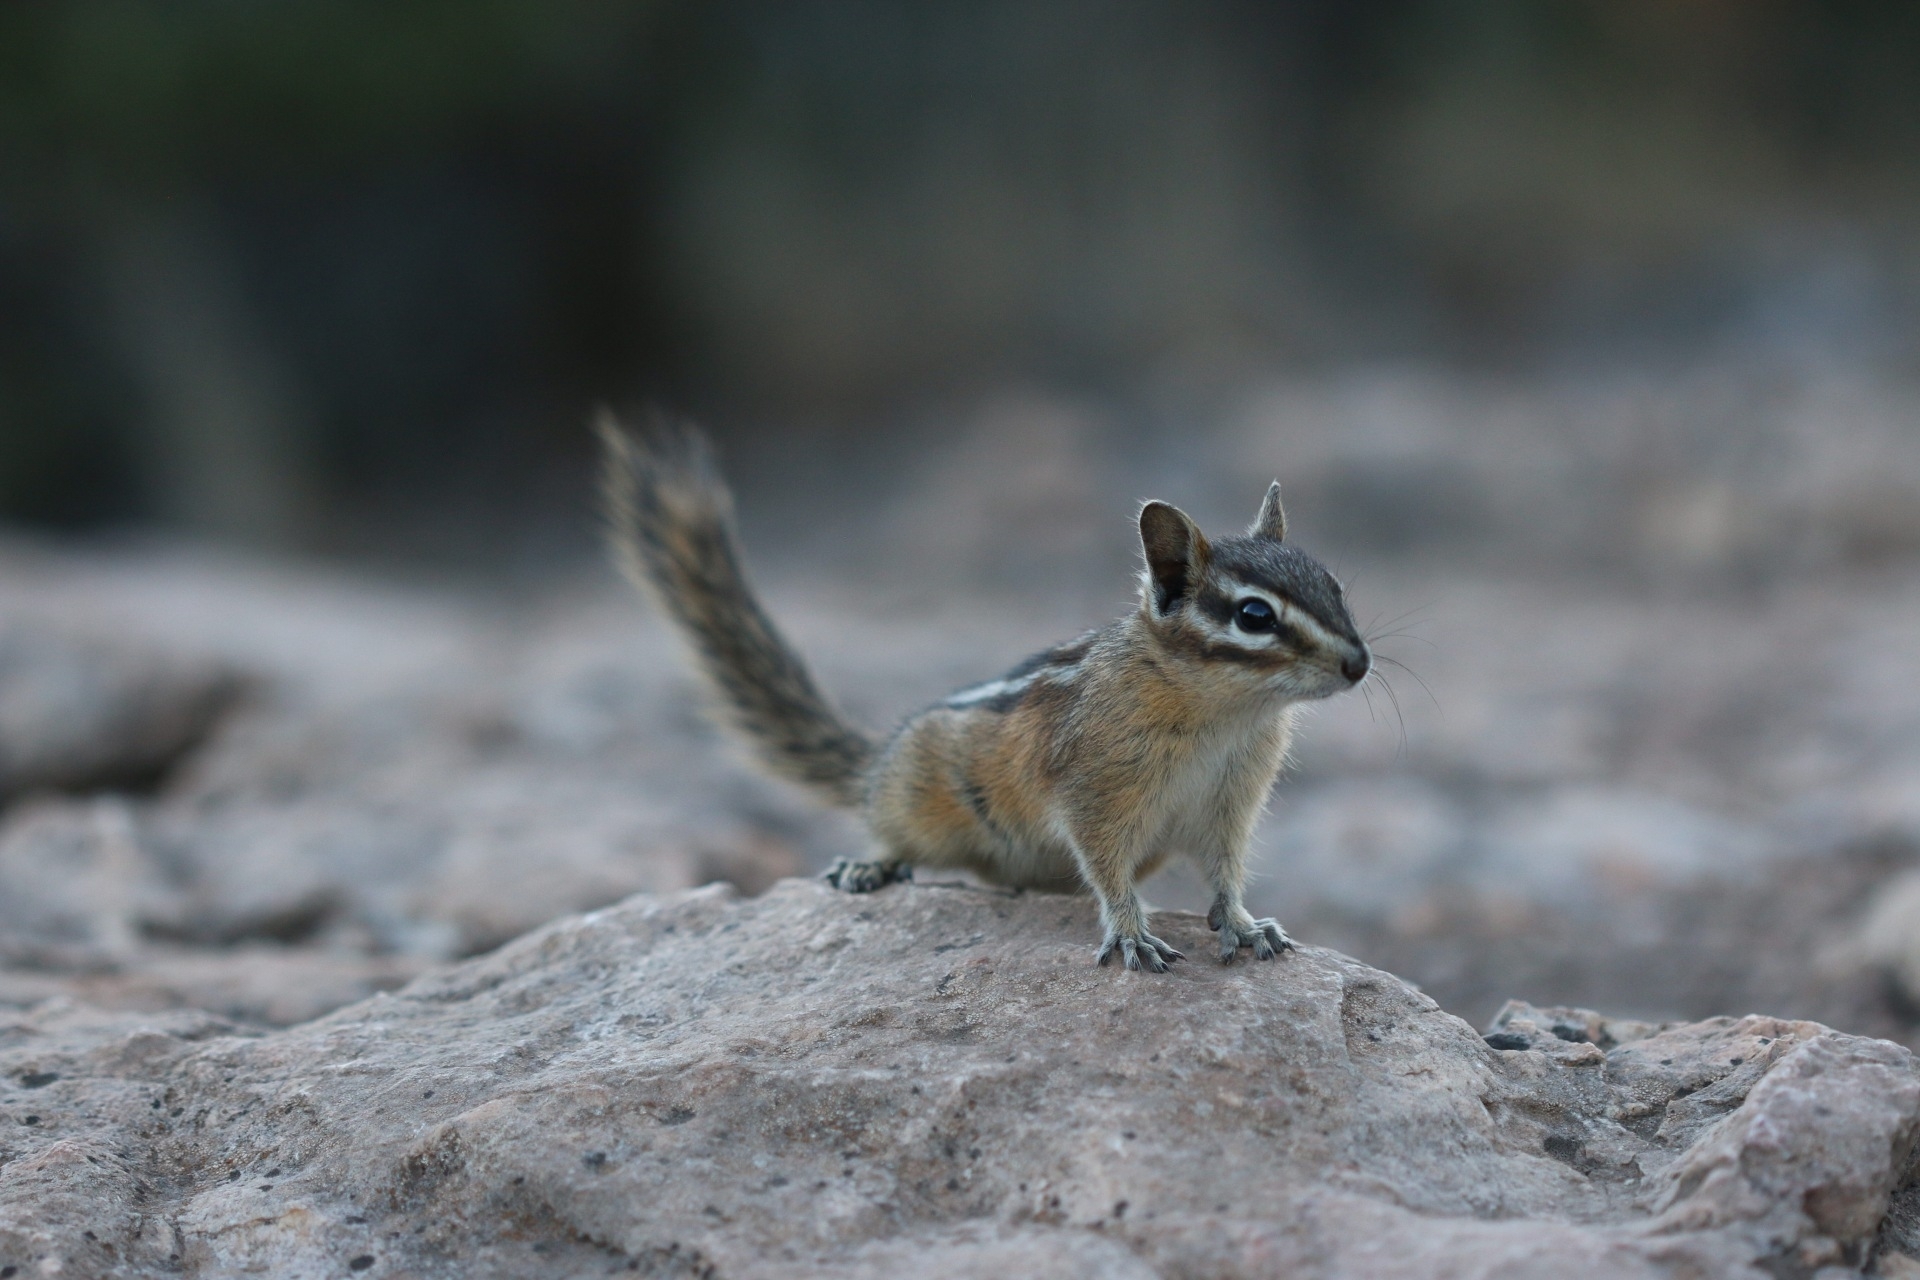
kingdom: Animalia
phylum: Chordata
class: Mammalia
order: Rodentia
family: Sciuridae
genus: Tamias
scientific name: Tamias amoenus
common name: Yellow-pine chipmunk
